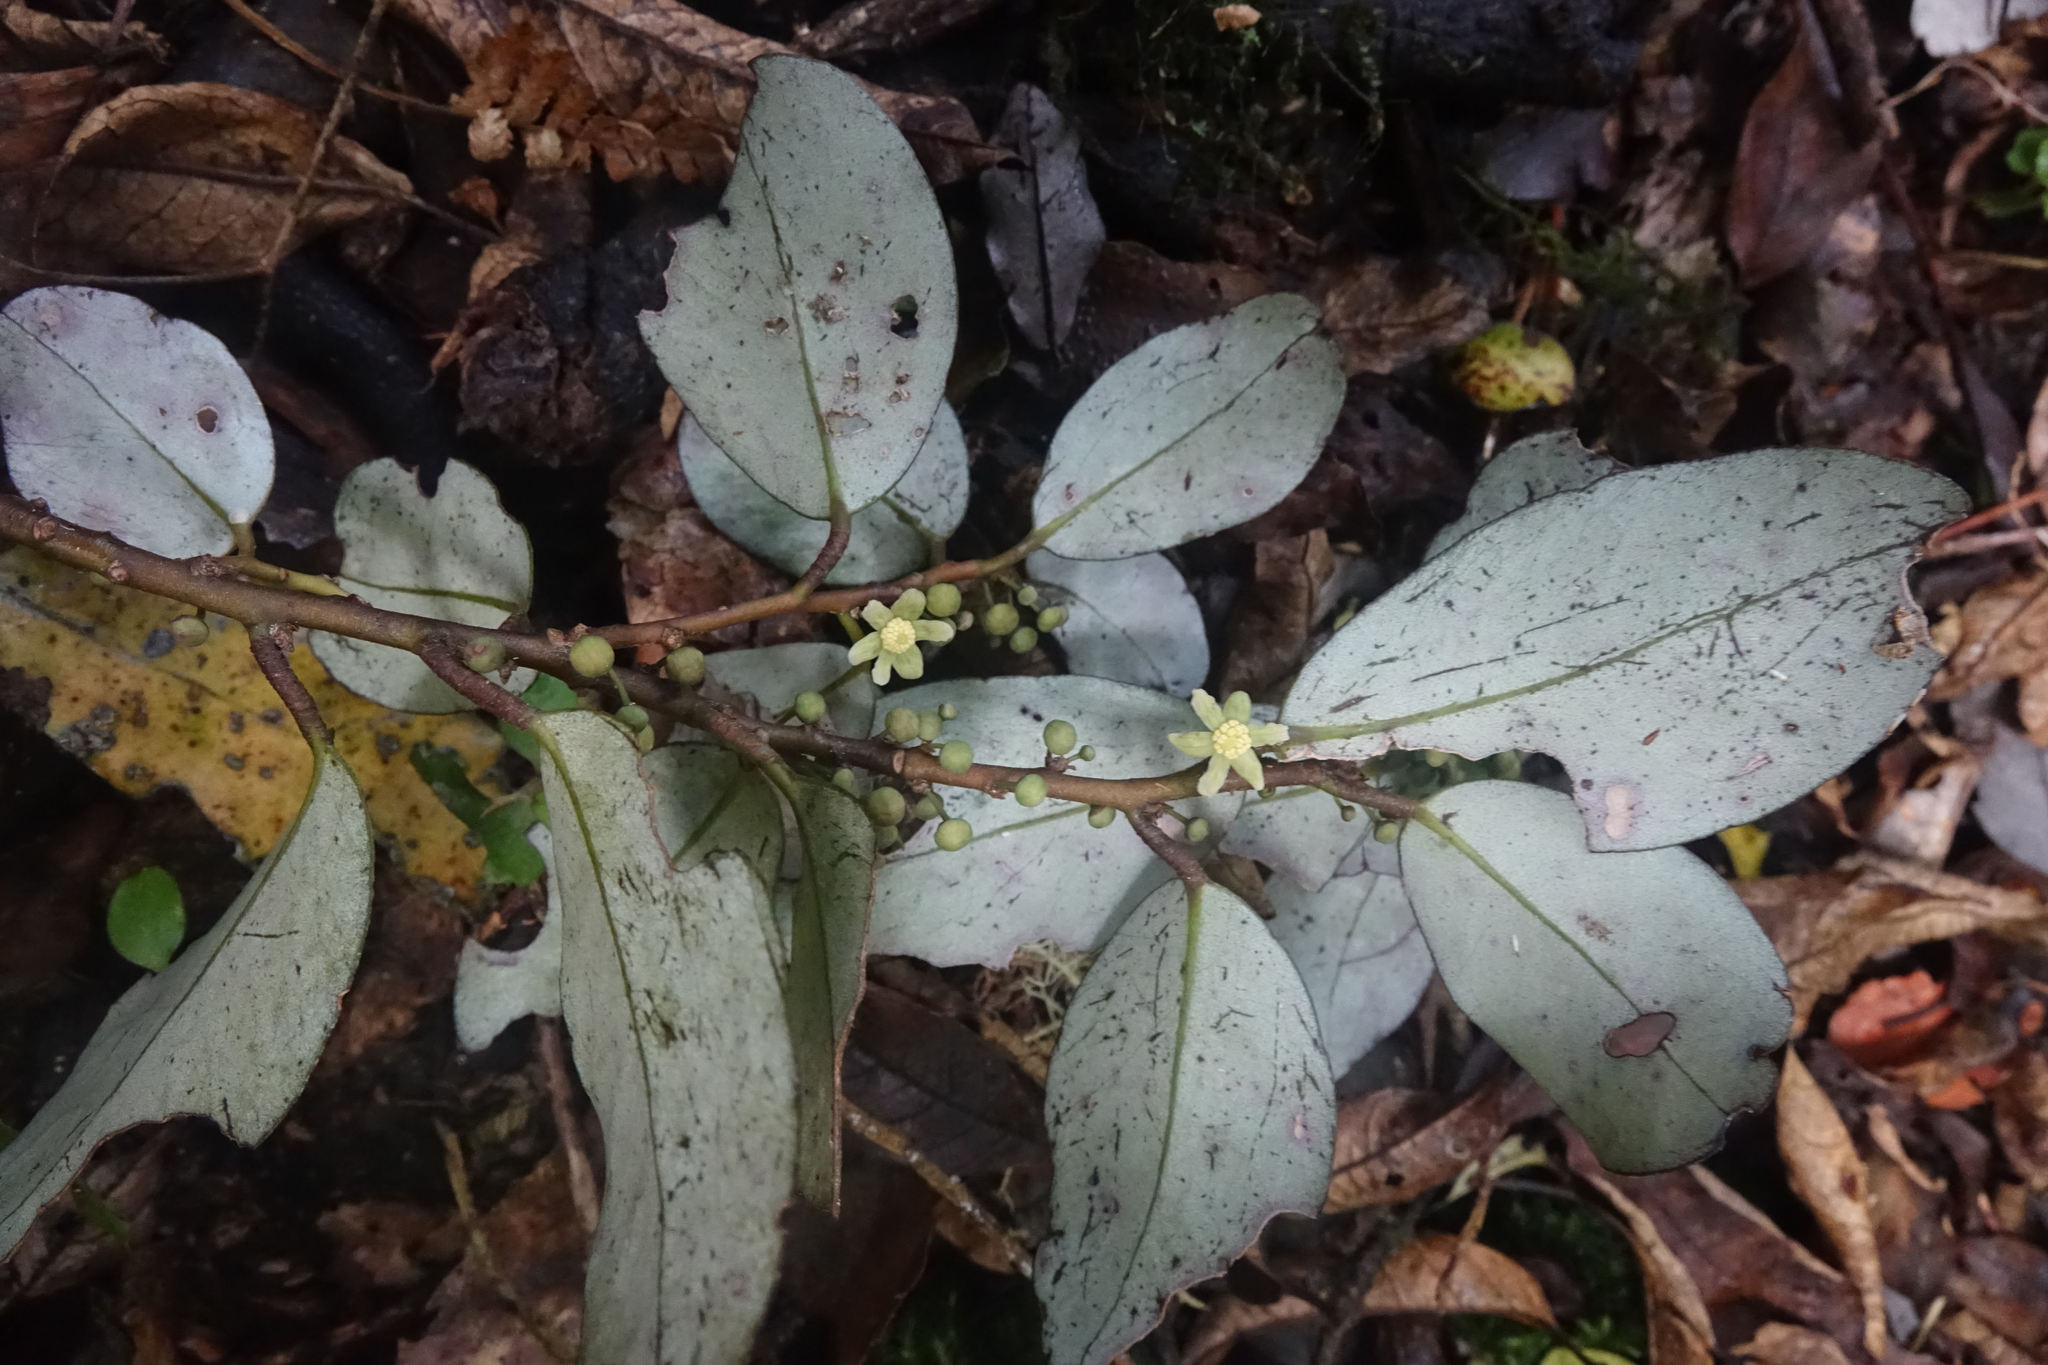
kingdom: Plantae
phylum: Tracheophyta
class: Magnoliopsida
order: Canellales
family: Winteraceae
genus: Pseudowintera
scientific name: Pseudowintera colorata
